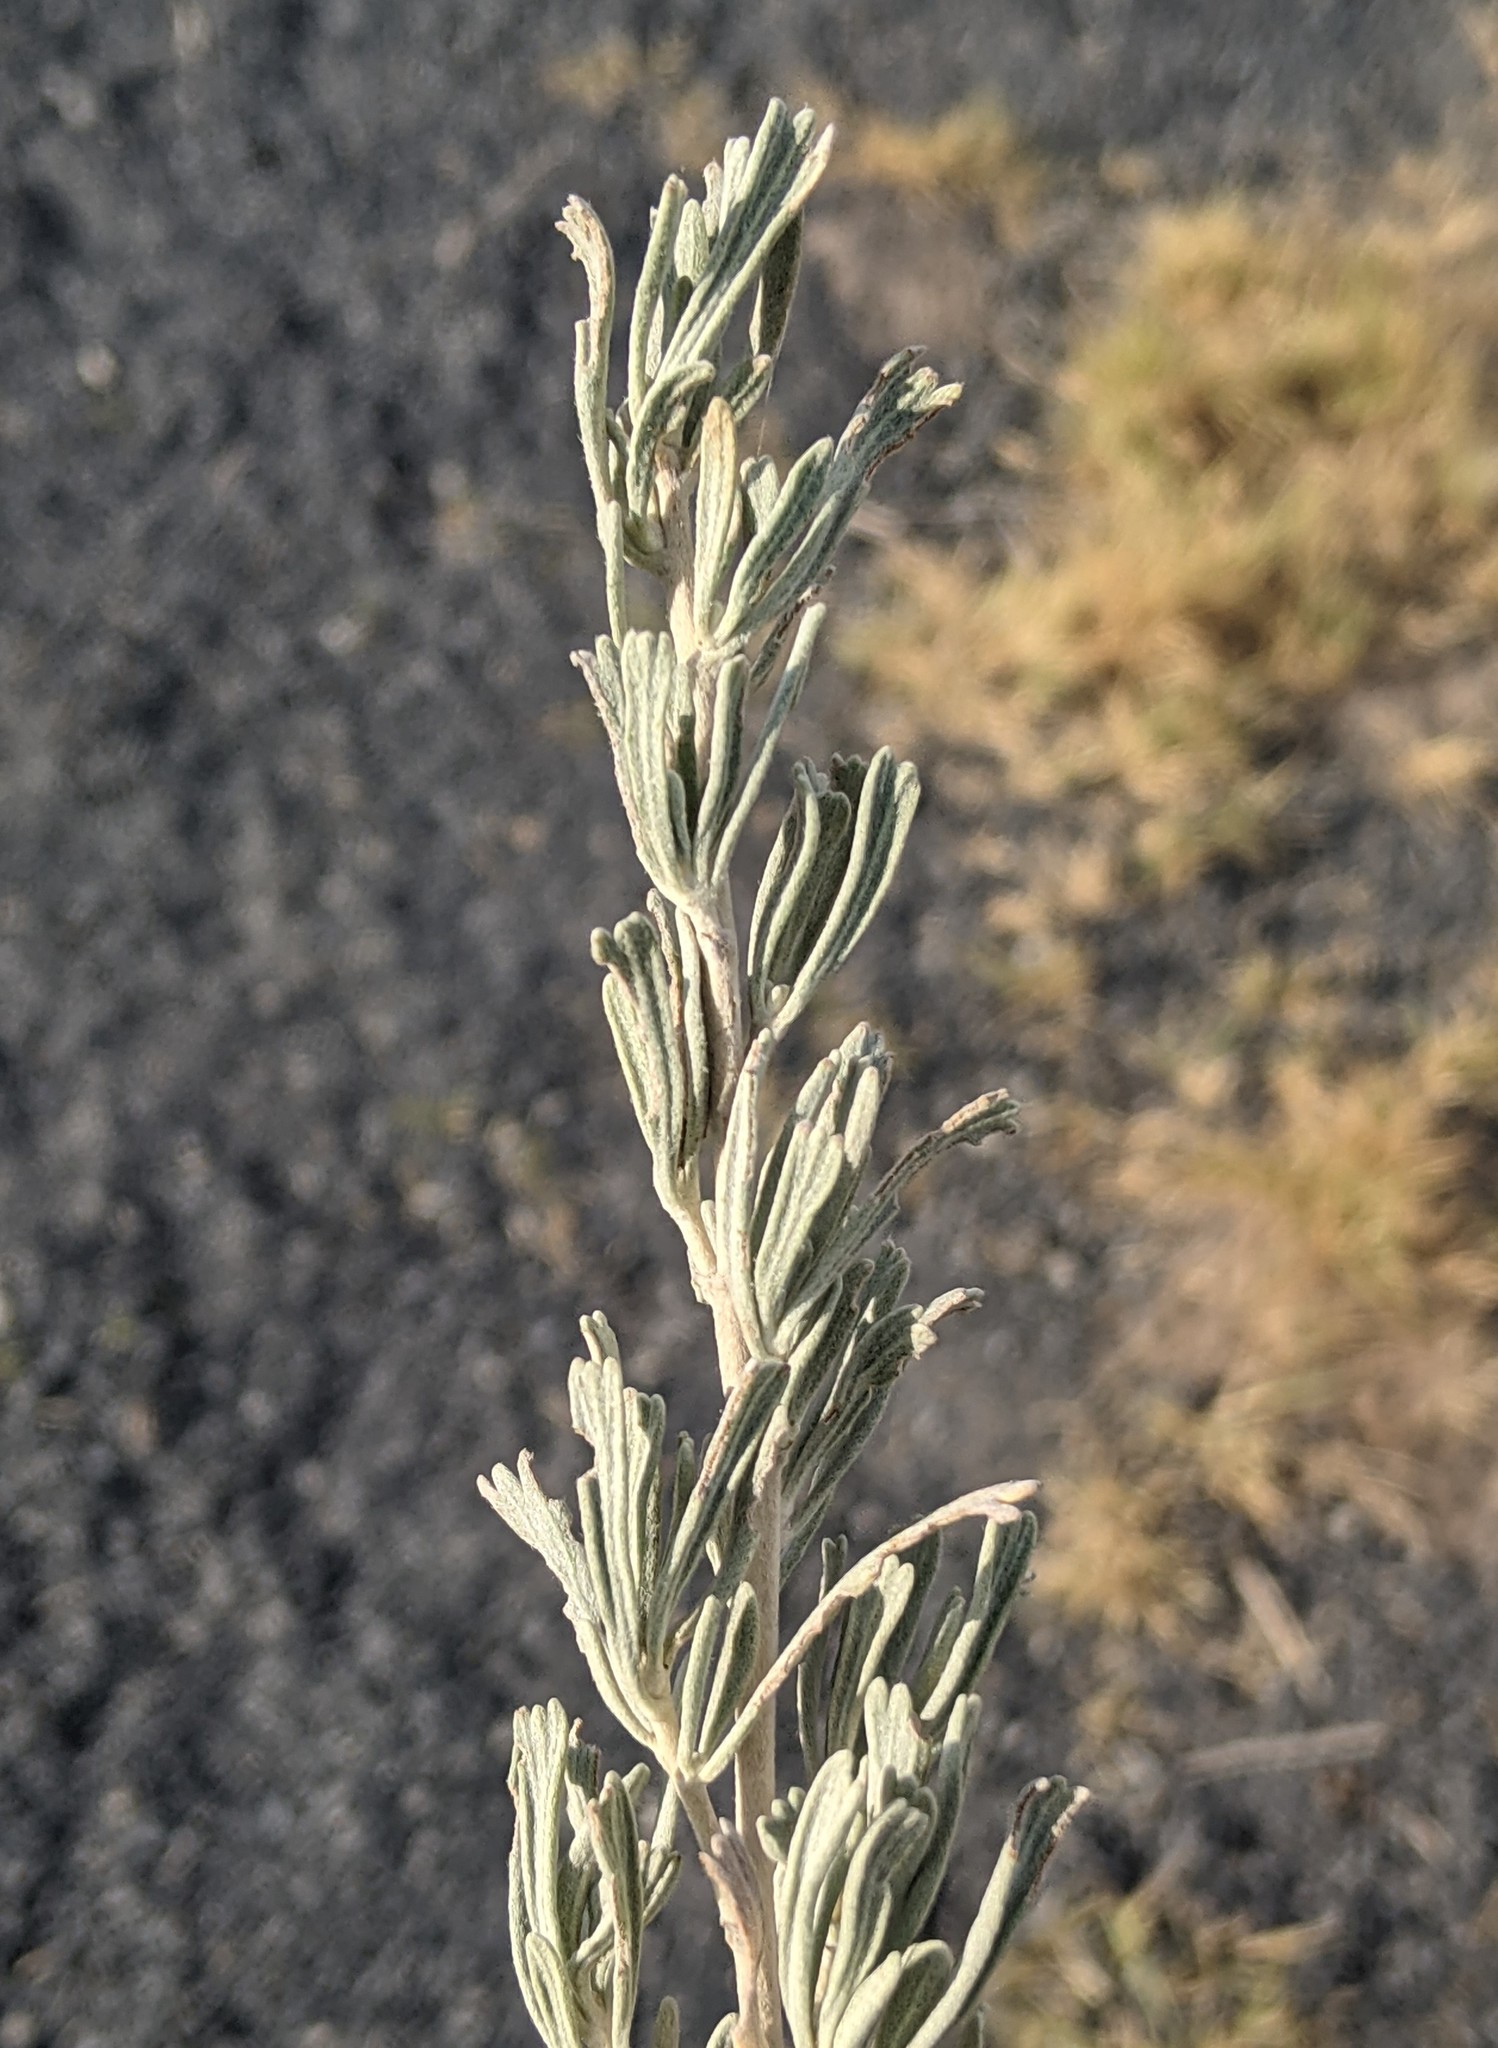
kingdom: Plantae
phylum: Tracheophyta
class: Magnoliopsida
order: Asterales
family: Asteraceae
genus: Artemisia
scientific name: Artemisia tridentata
